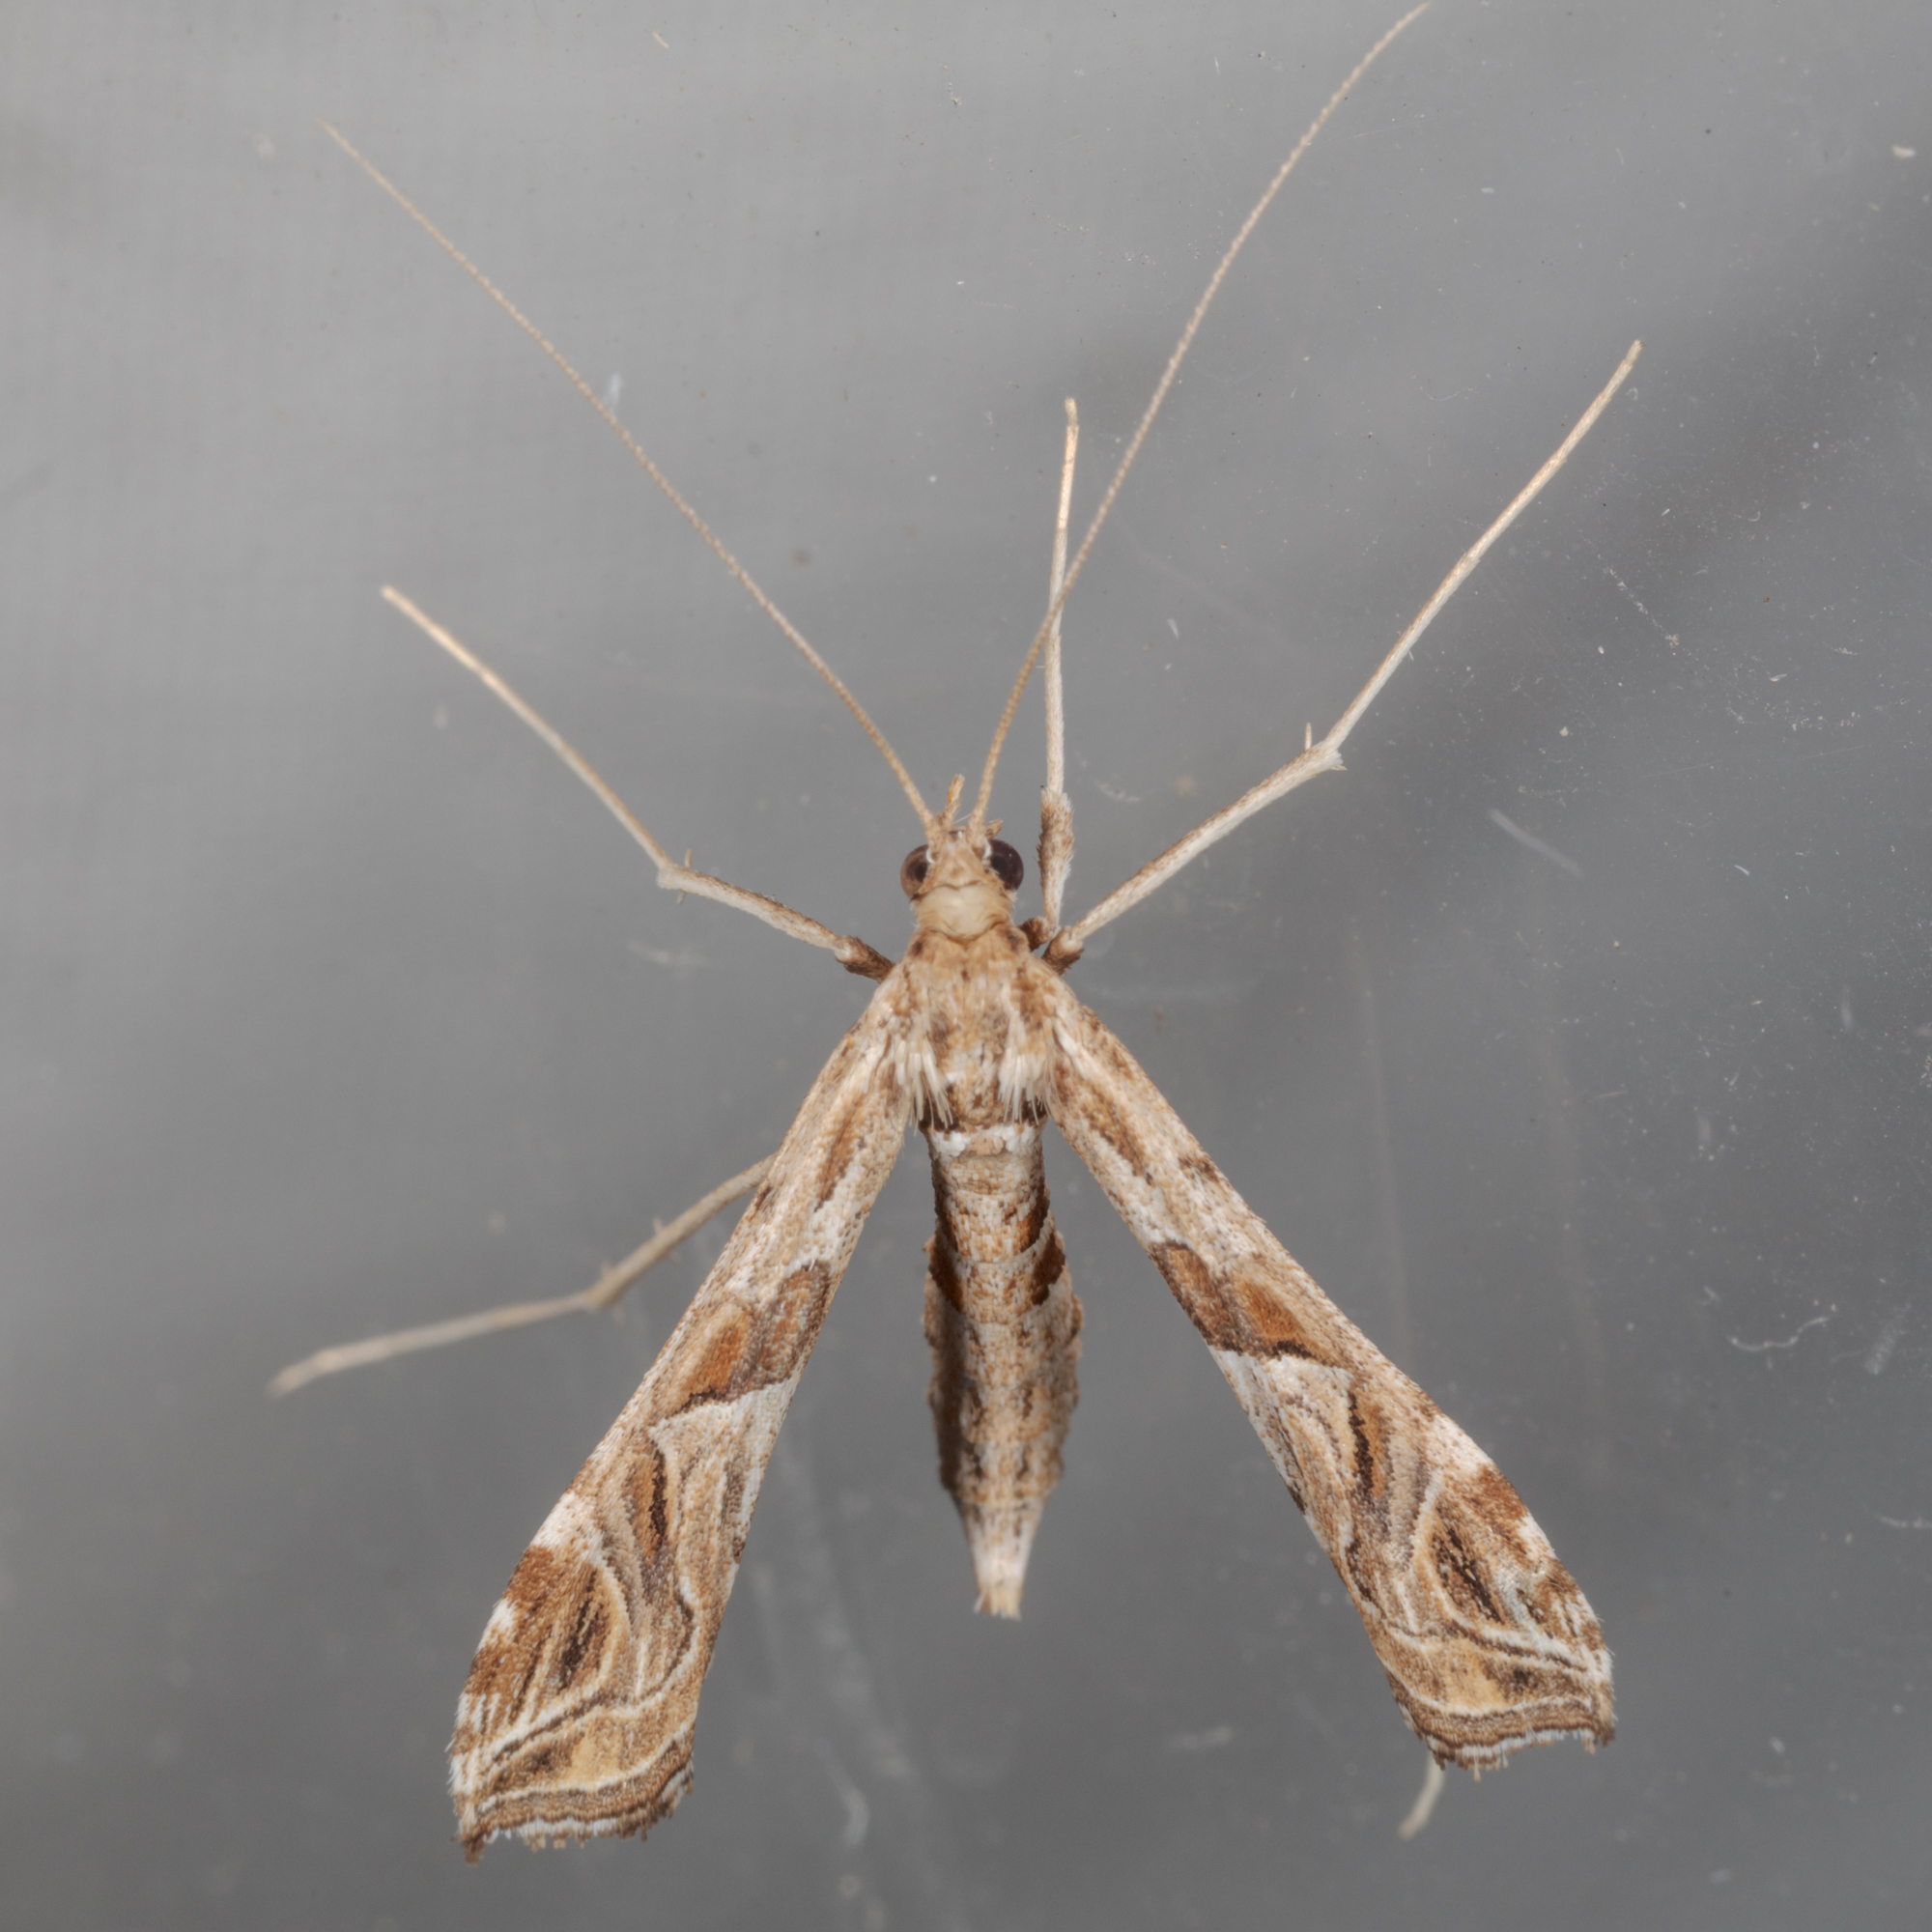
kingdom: Animalia
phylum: Arthropoda
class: Insecta
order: Lepidoptera
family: Crambidae
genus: Lineodes
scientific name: Lineodes integra
